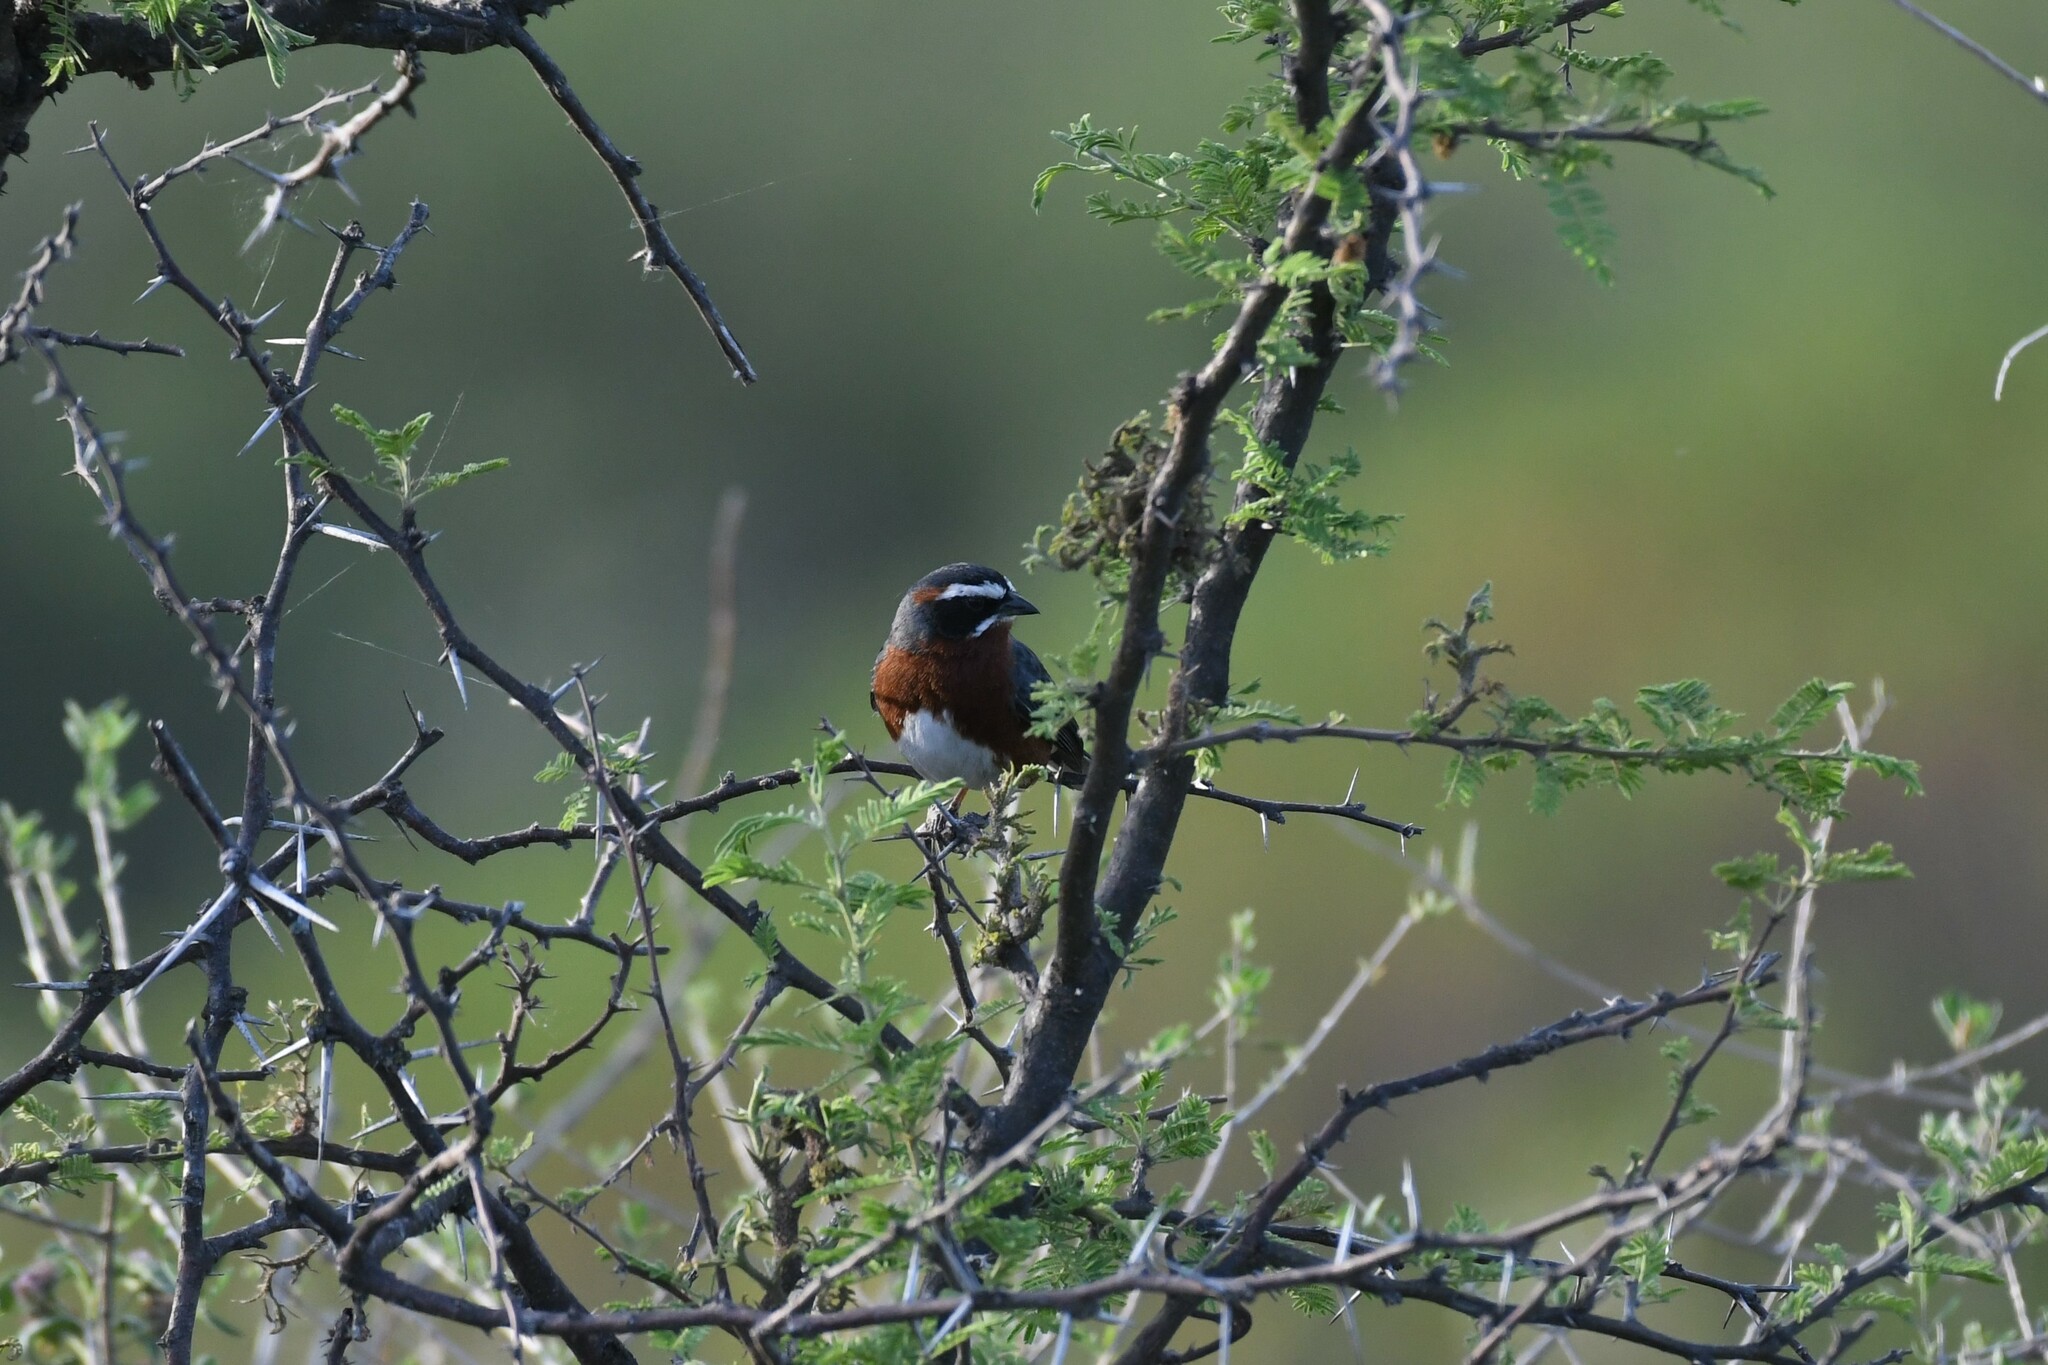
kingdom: Animalia
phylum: Chordata
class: Aves
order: Passeriformes
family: Thraupidae
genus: Poospiza
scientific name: Poospiza whitii
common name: Black-and-chestnut warbling finch
